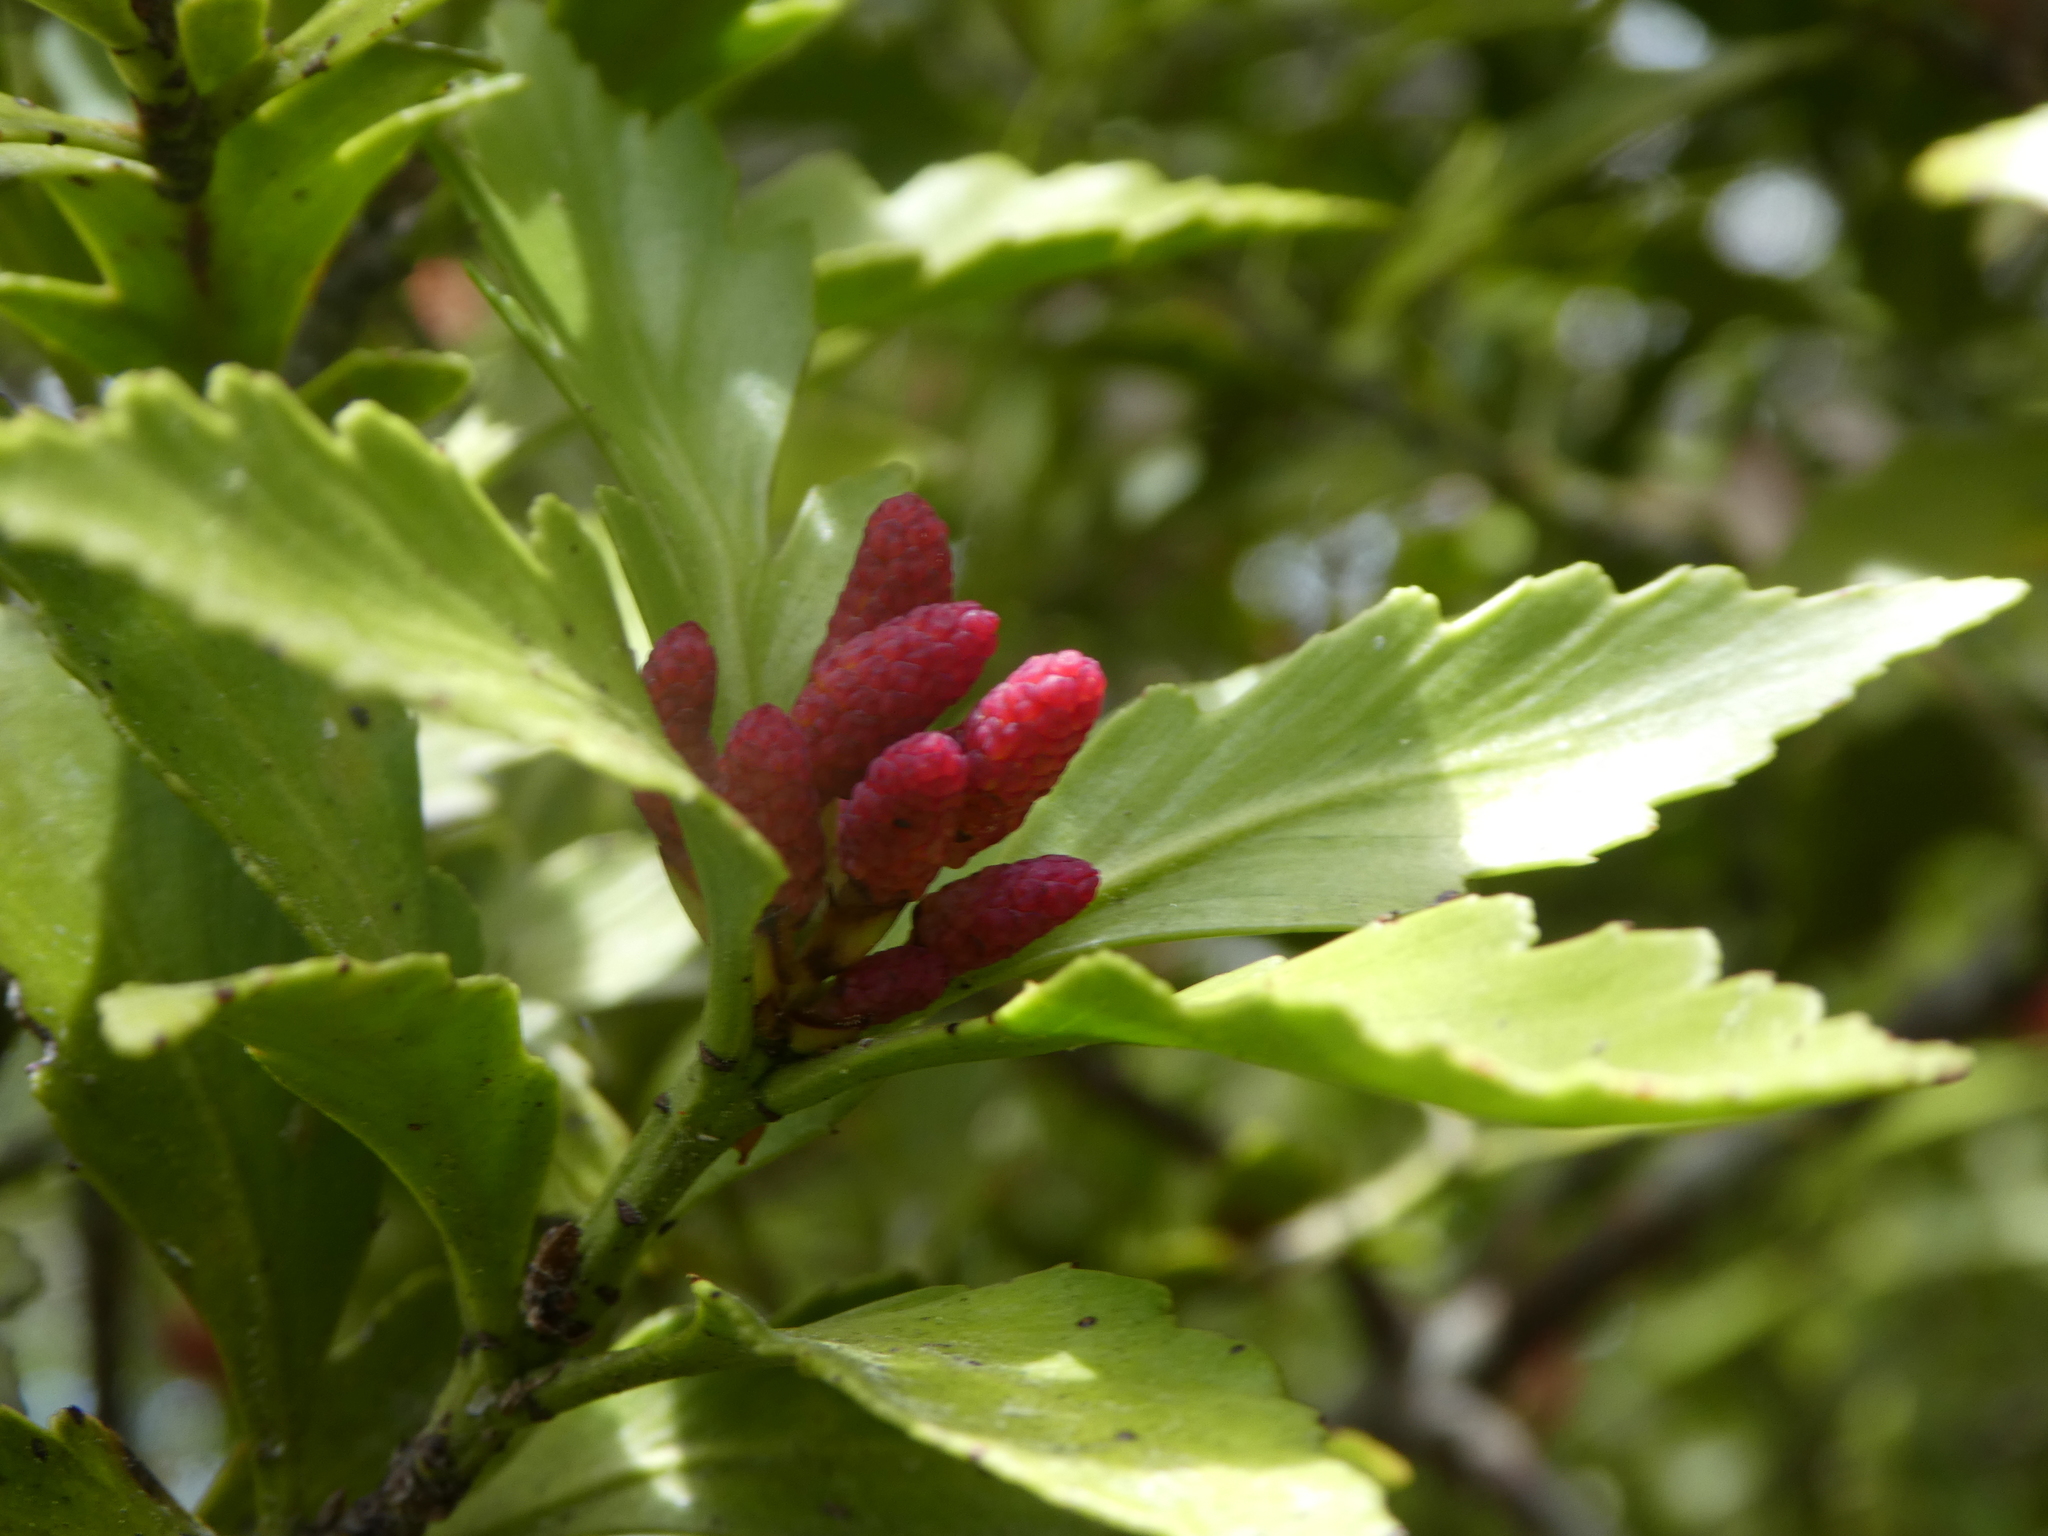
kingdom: Plantae
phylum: Tracheophyta
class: Pinopsida
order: Pinales
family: Phyllocladaceae
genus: Phyllocladus
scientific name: Phyllocladus trichomanoides
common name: Celery pine
